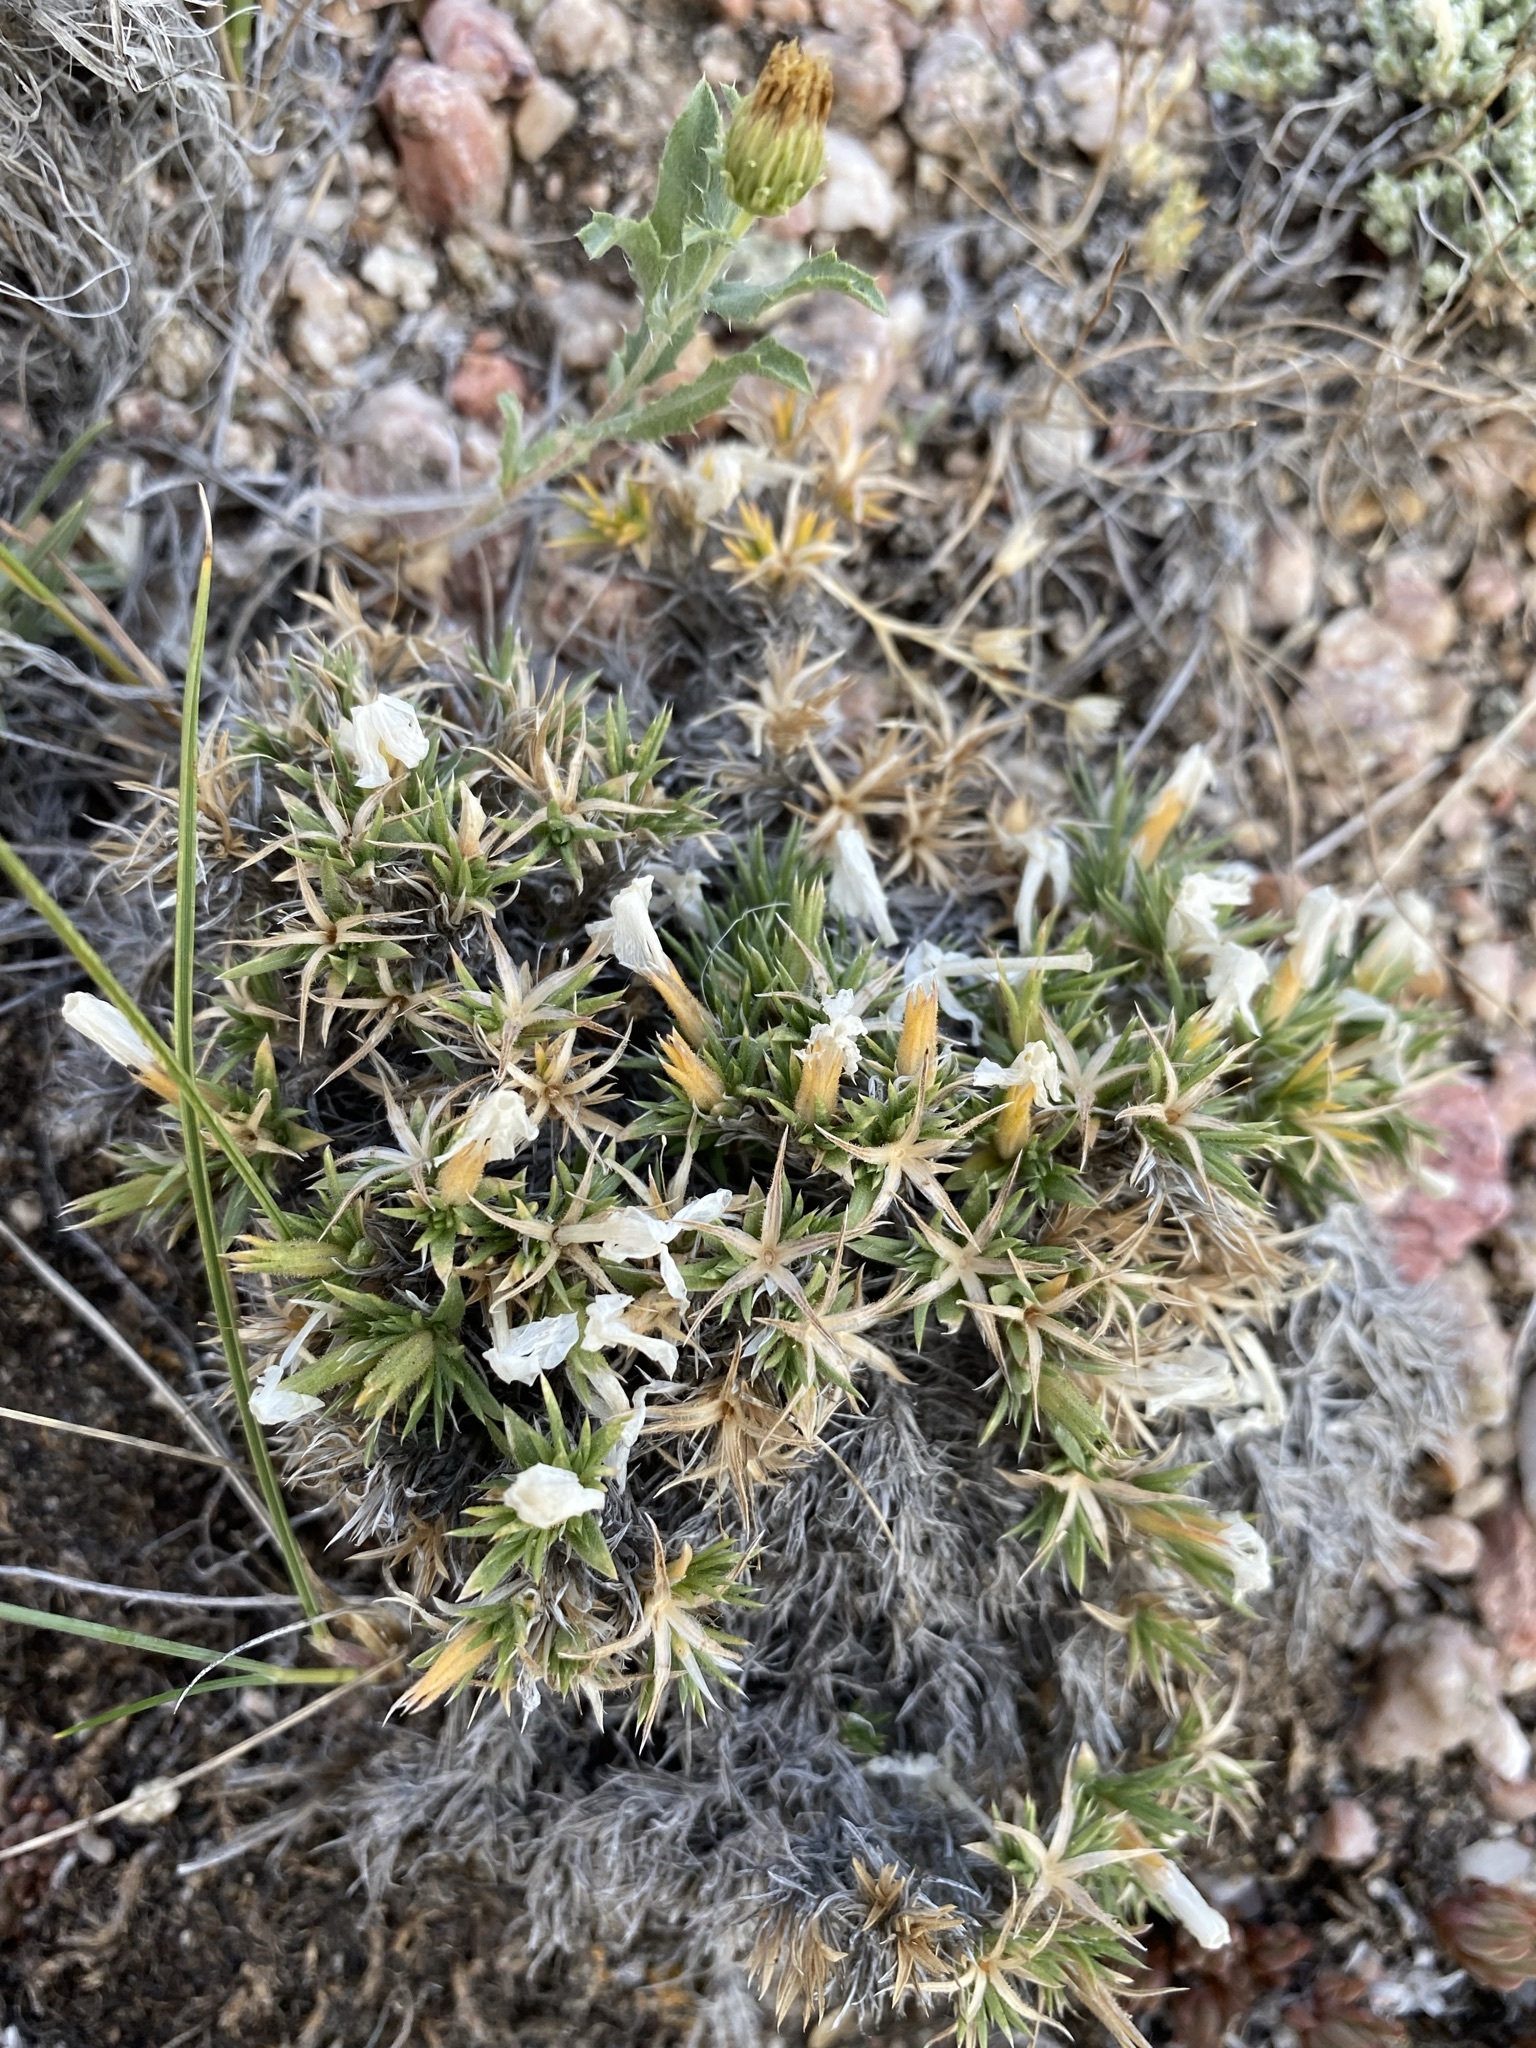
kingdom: Plantae
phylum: Tracheophyta
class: Magnoliopsida
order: Ericales
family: Polemoniaceae
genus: Phlox
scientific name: Phlox pungens
